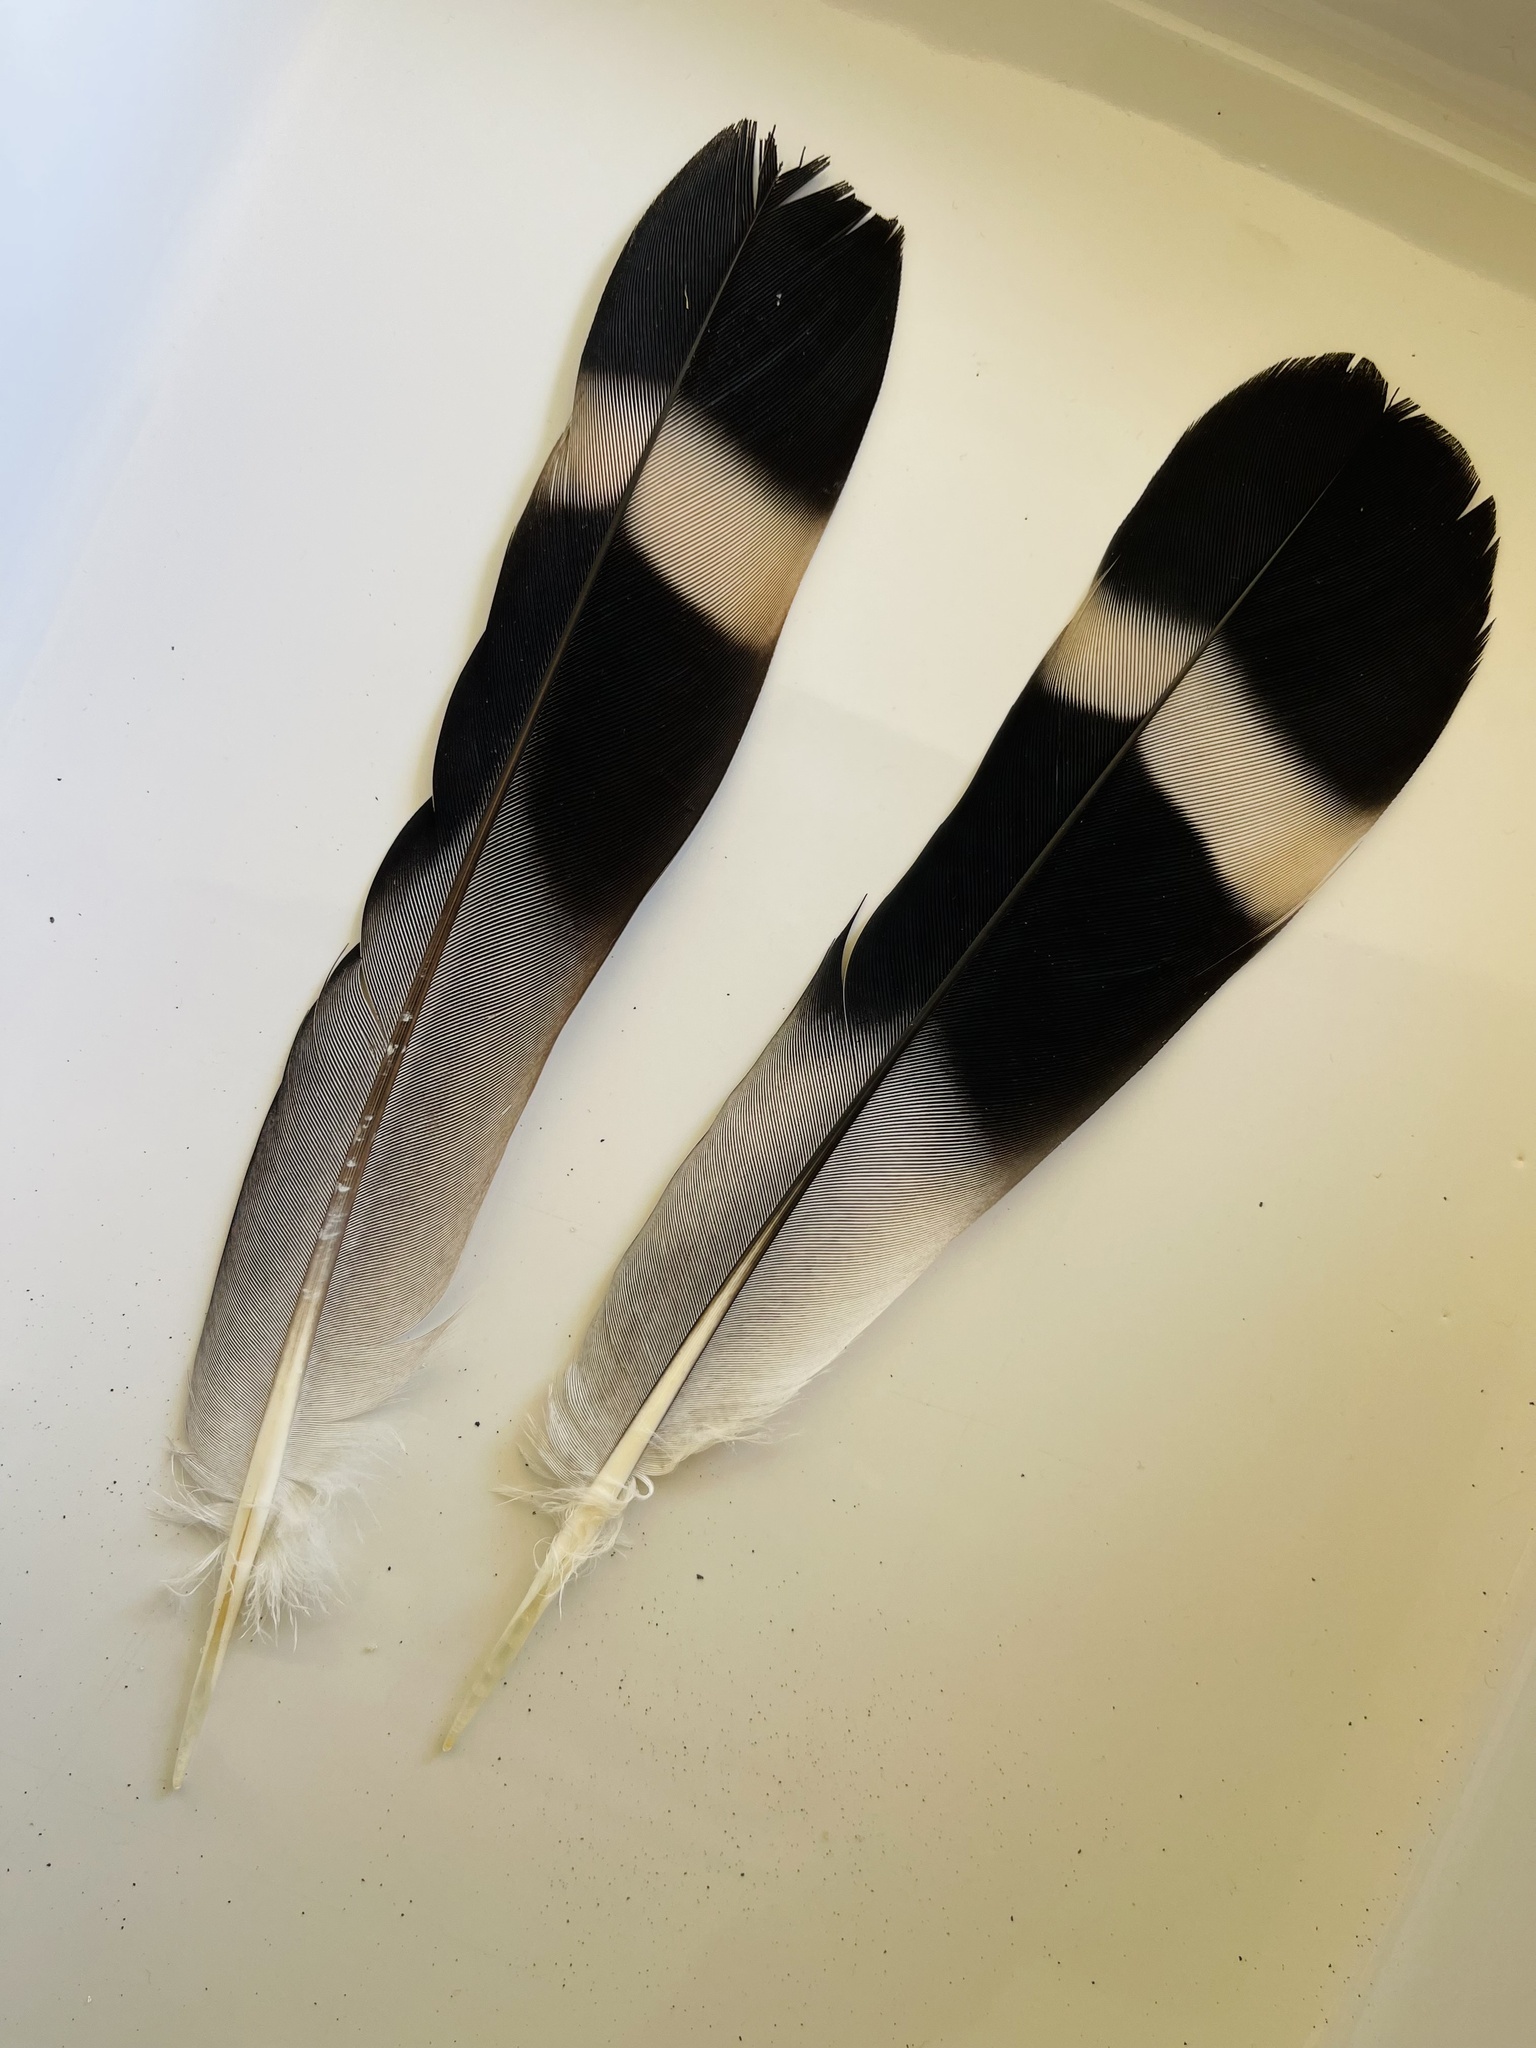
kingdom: Animalia
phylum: Chordata
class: Aves
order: Columbiformes
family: Columbidae
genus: Lopholaimus
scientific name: Lopholaimus antarcticus
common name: Topknot pigeon
